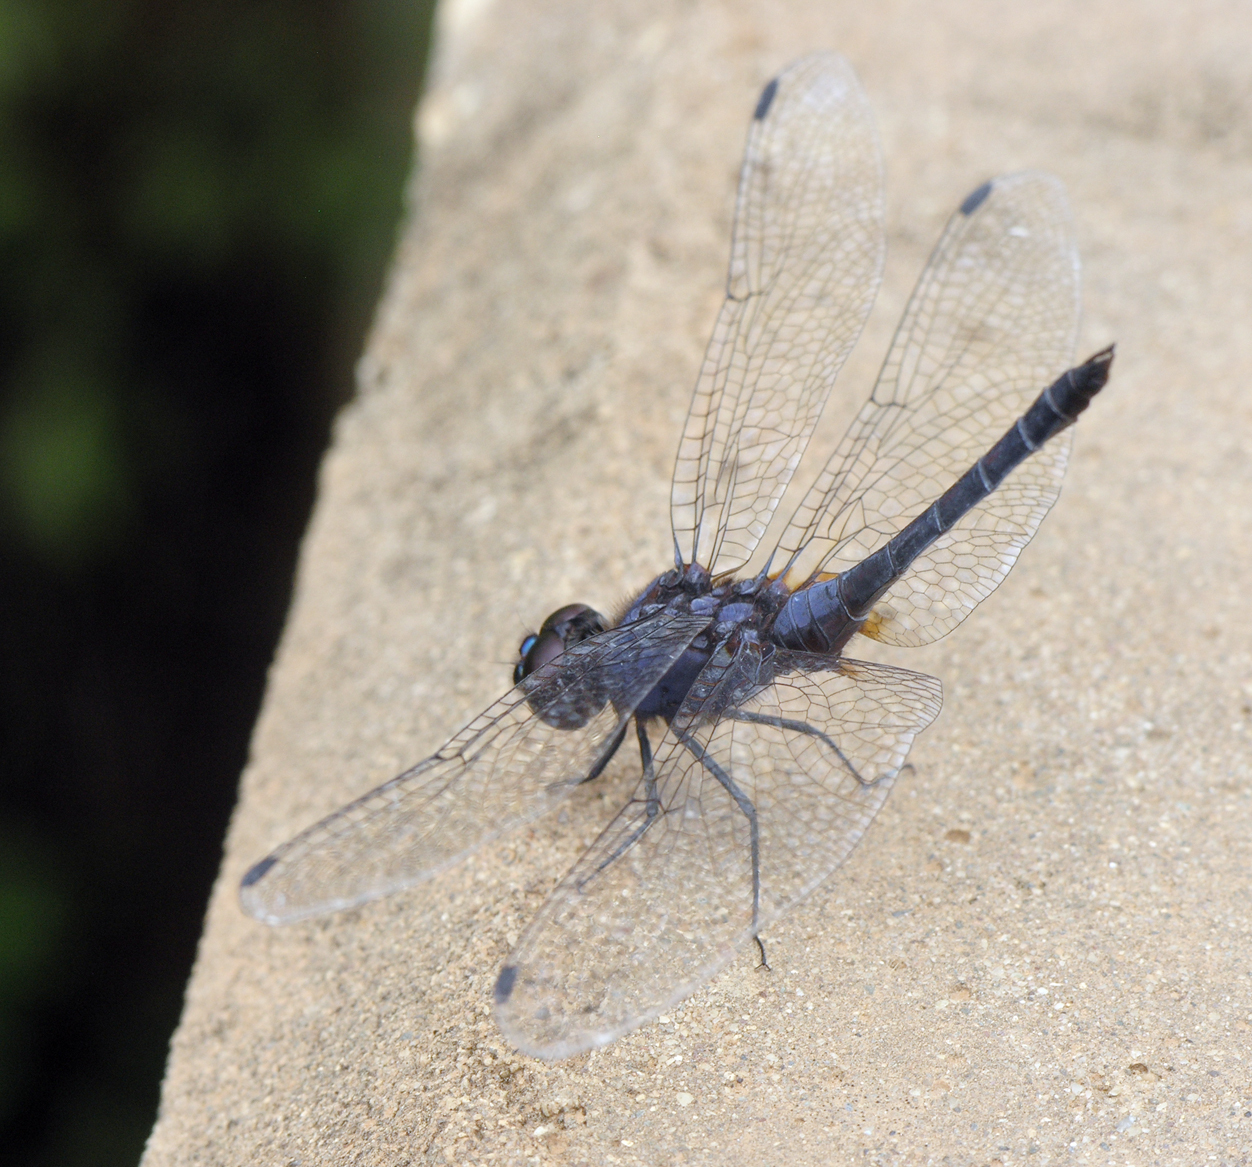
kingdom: Animalia
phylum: Arthropoda
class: Insecta
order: Odonata
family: Libellulidae
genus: Trithemis
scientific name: Trithemis festiva
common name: Indigo dropwing
